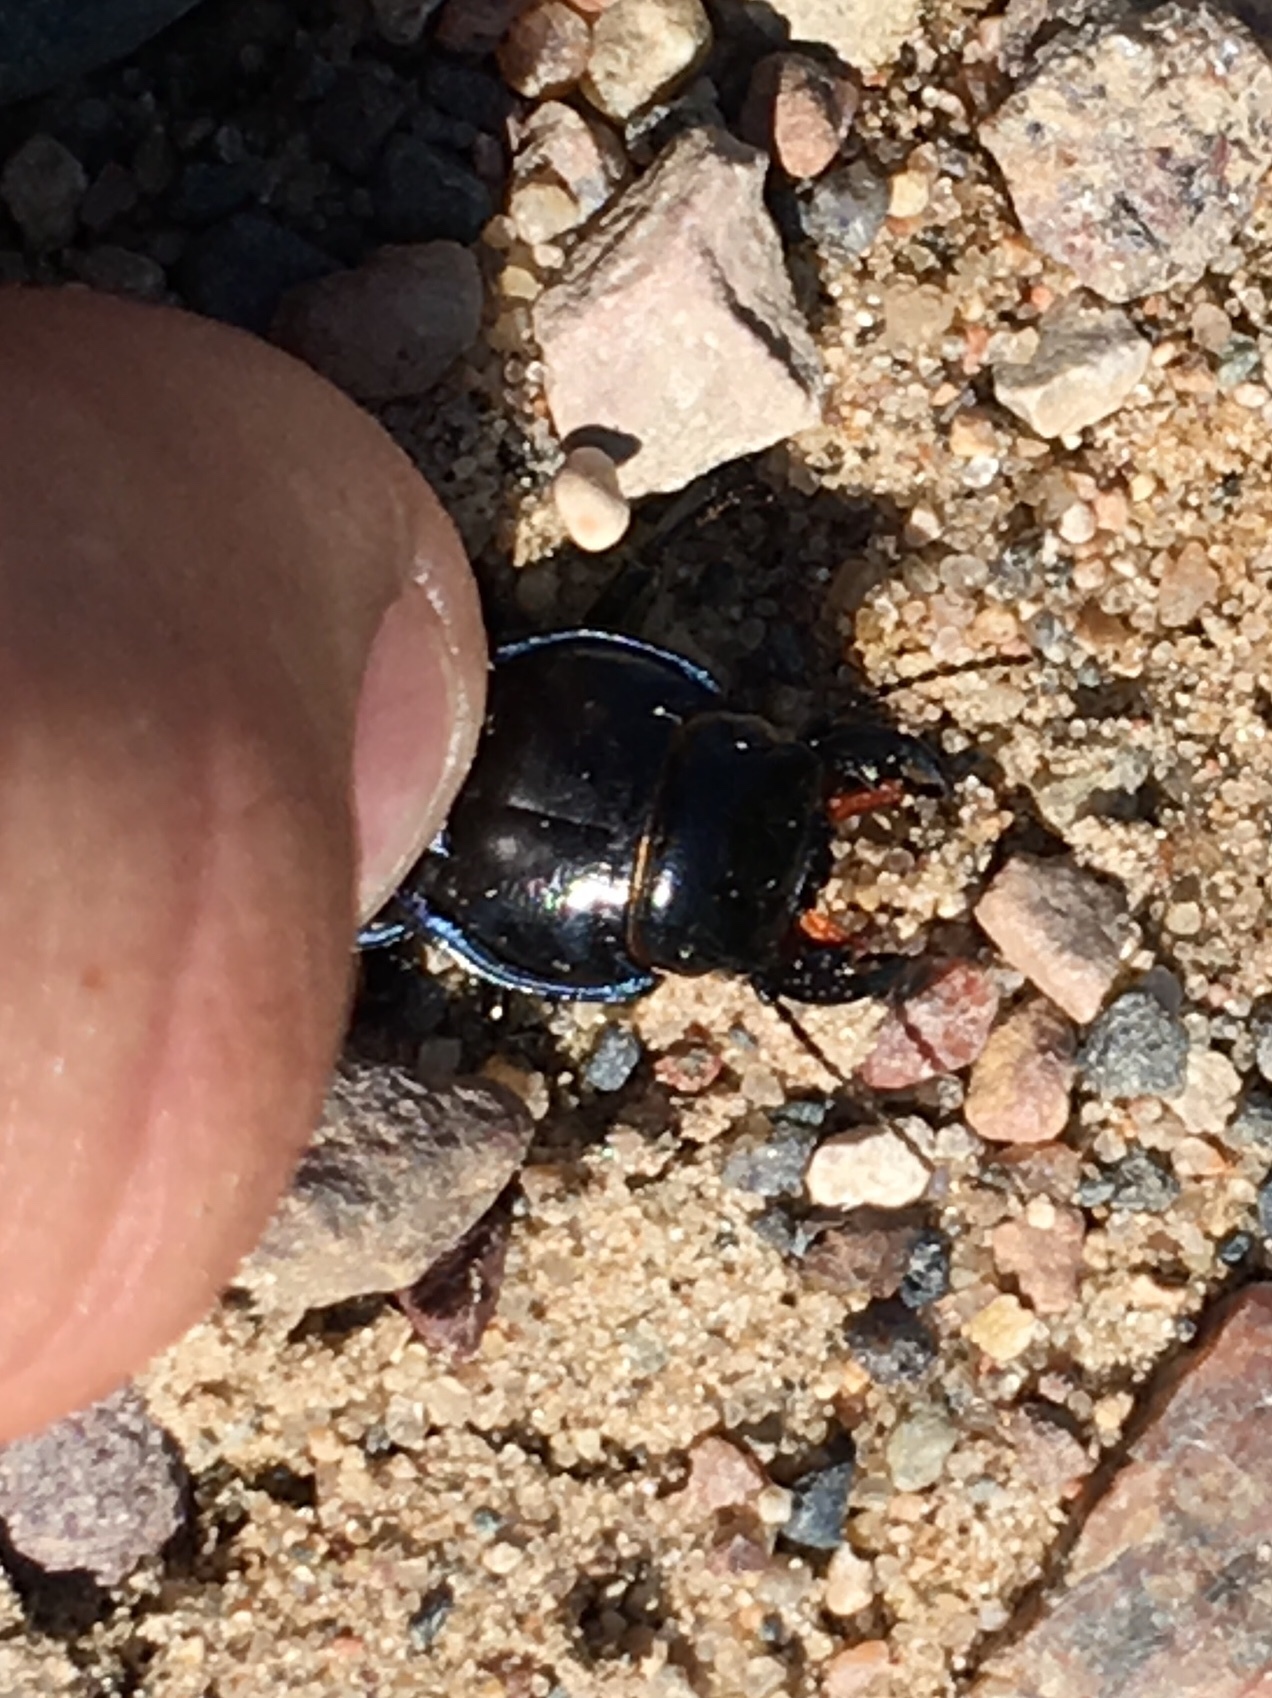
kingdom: Animalia
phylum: Arthropoda
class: Insecta
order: Coleoptera
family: Carabidae
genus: Pasimachus
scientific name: Pasimachus elongatus
